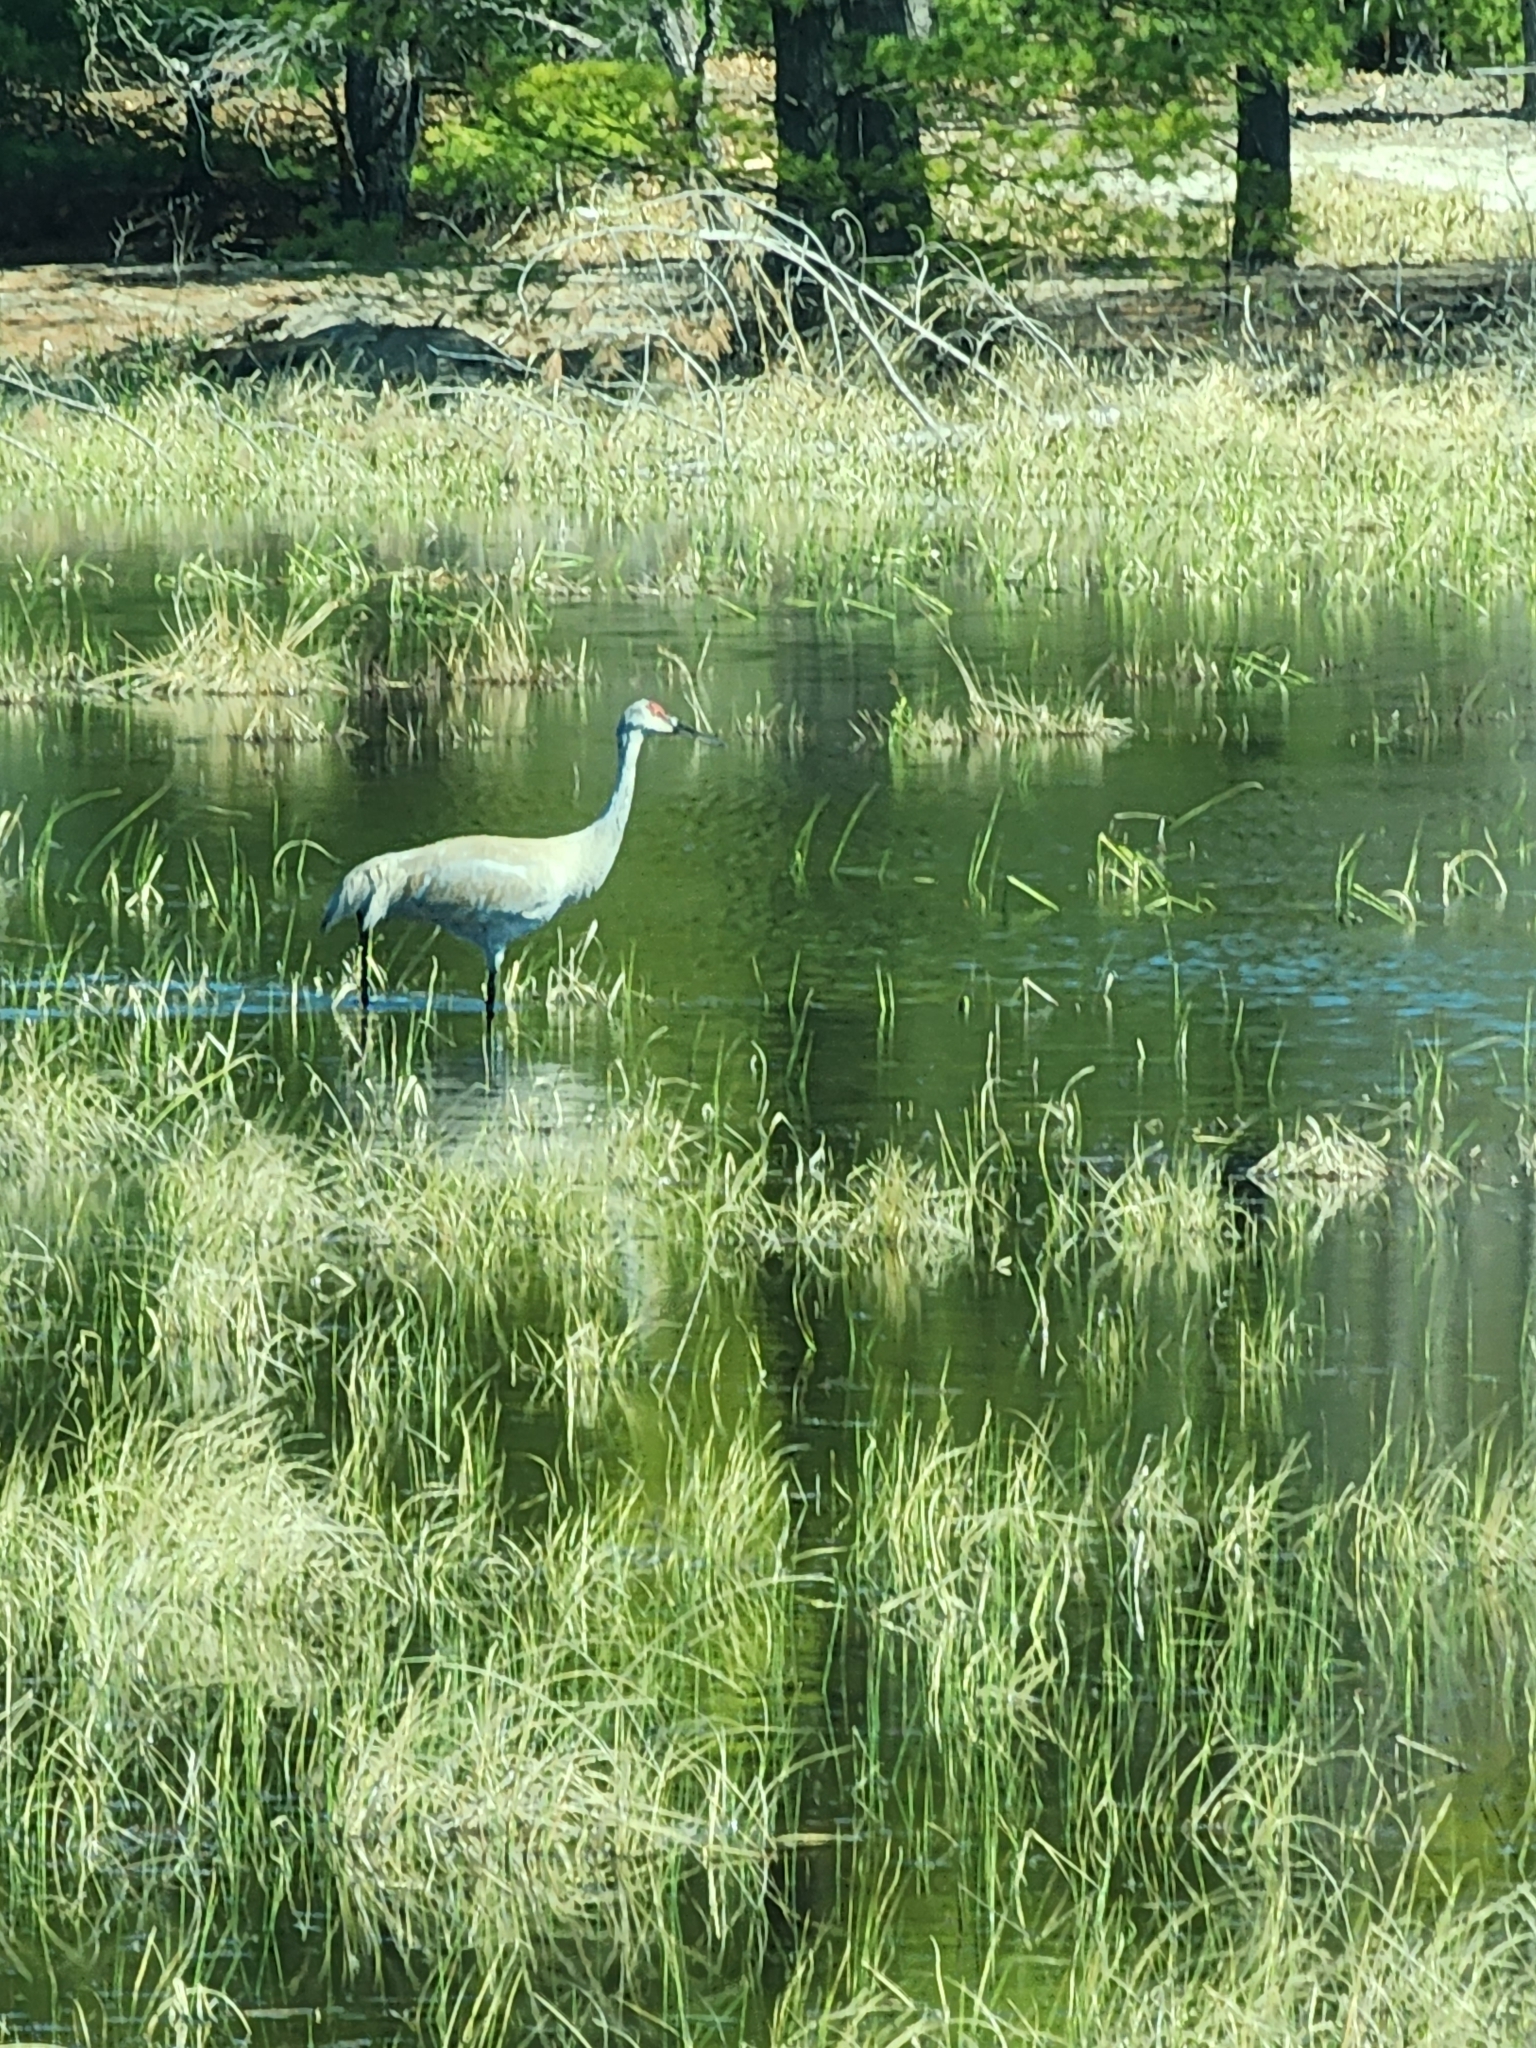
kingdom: Animalia
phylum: Chordata
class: Aves
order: Gruiformes
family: Gruidae
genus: Grus
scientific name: Grus canadensis
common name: Sandhill crane
